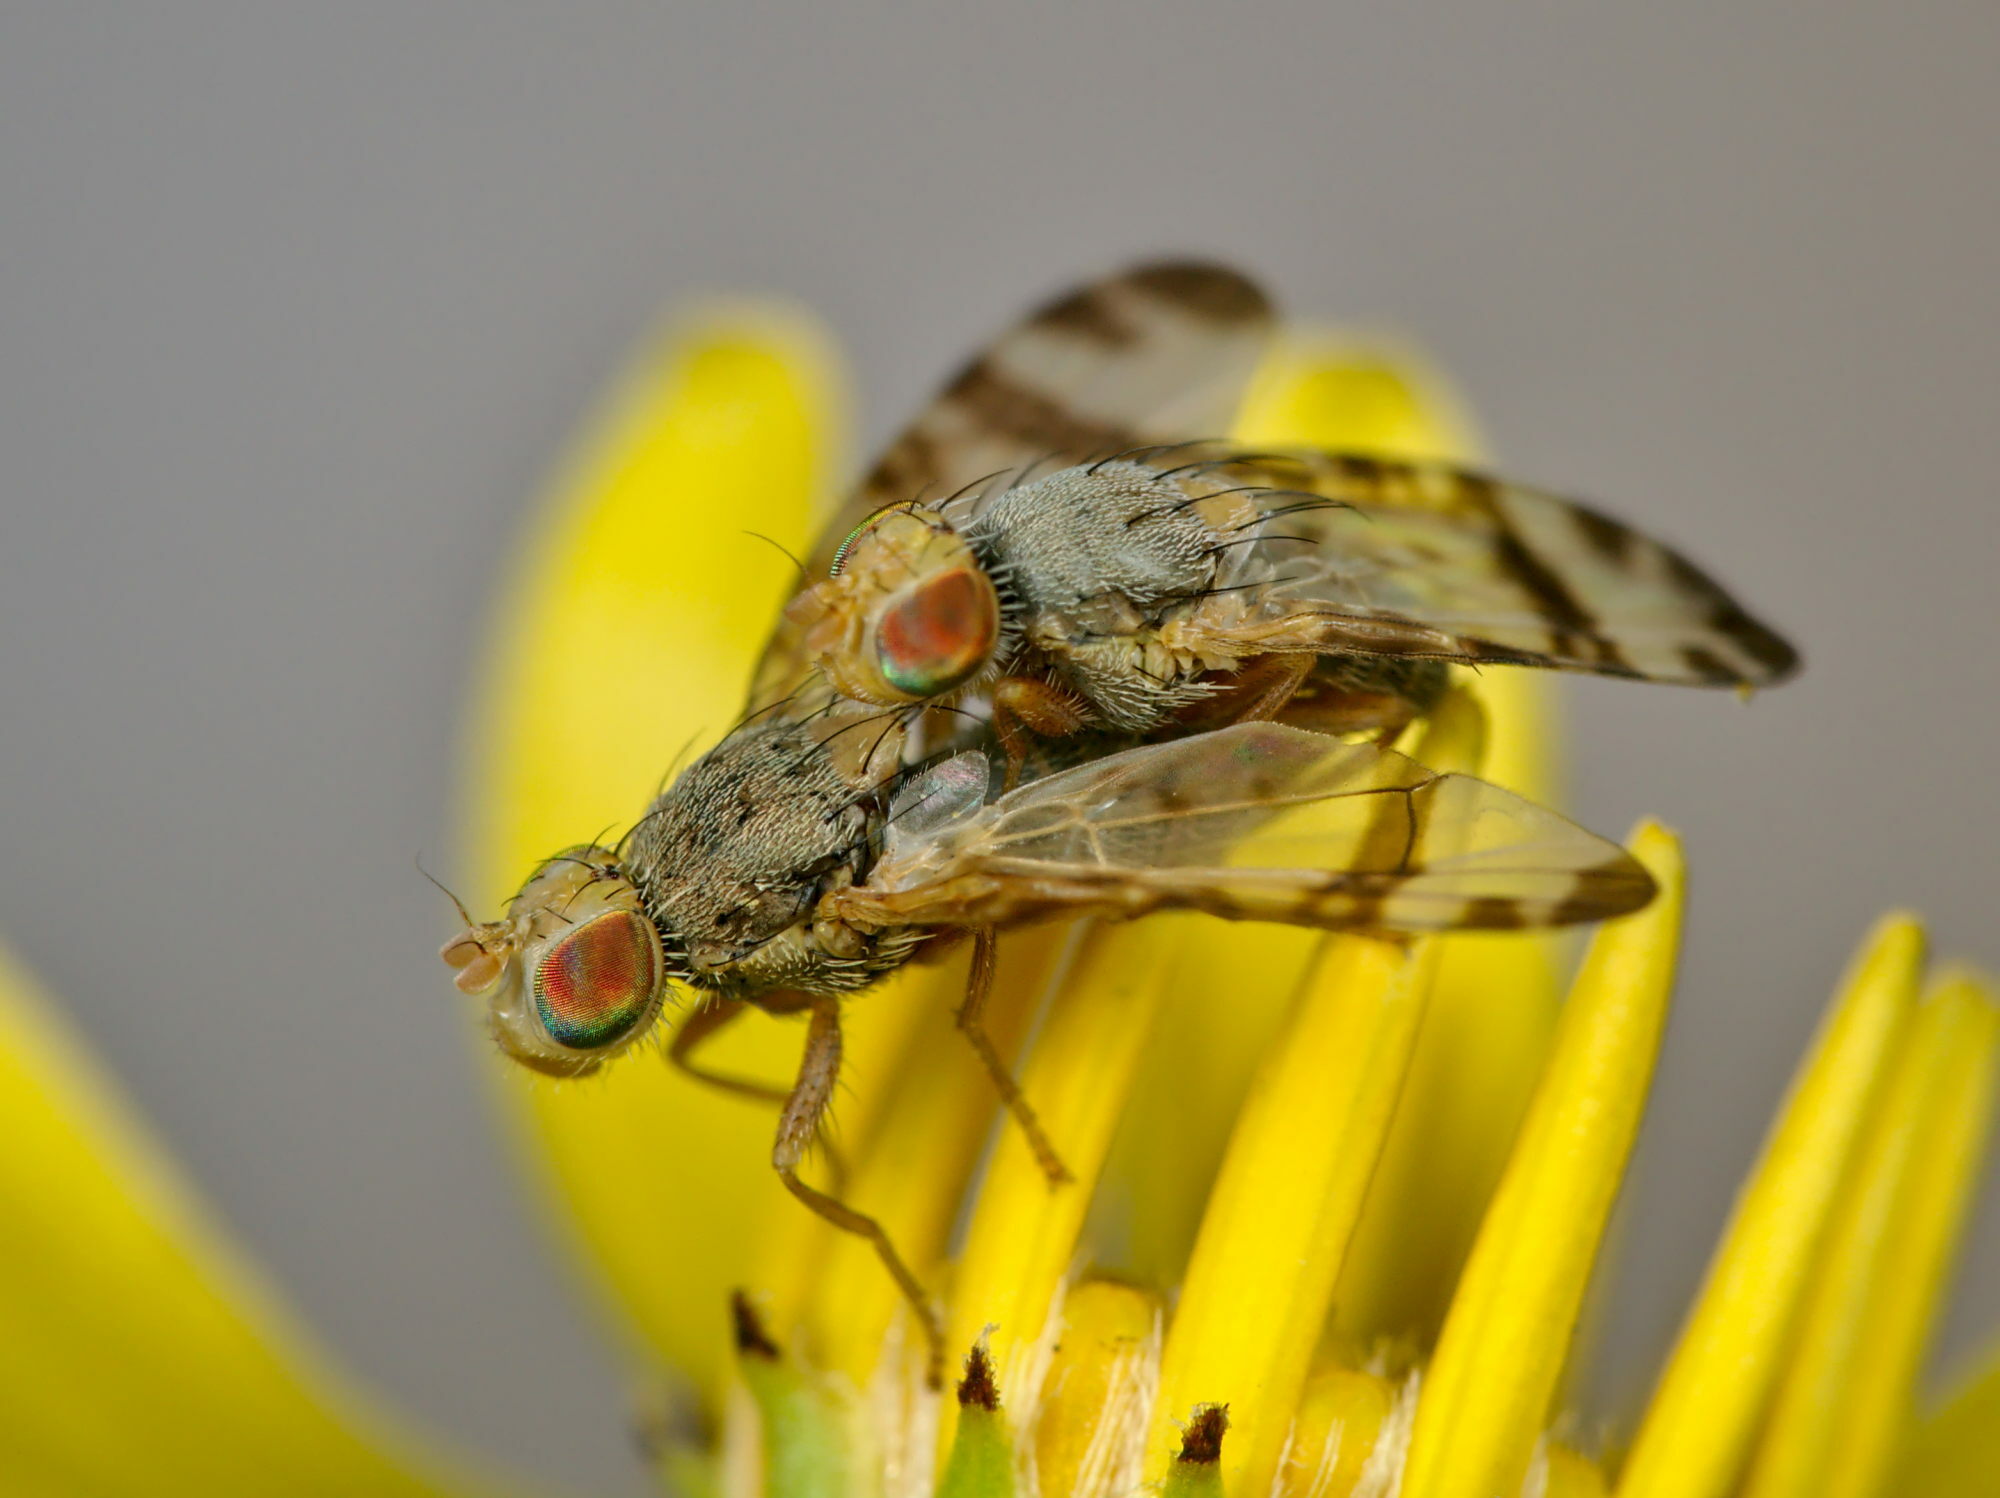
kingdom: Animalia
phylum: Arthropoda
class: Insecta
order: Diptera
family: Tephritidae
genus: Sphenella
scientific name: Sphenella marginata
